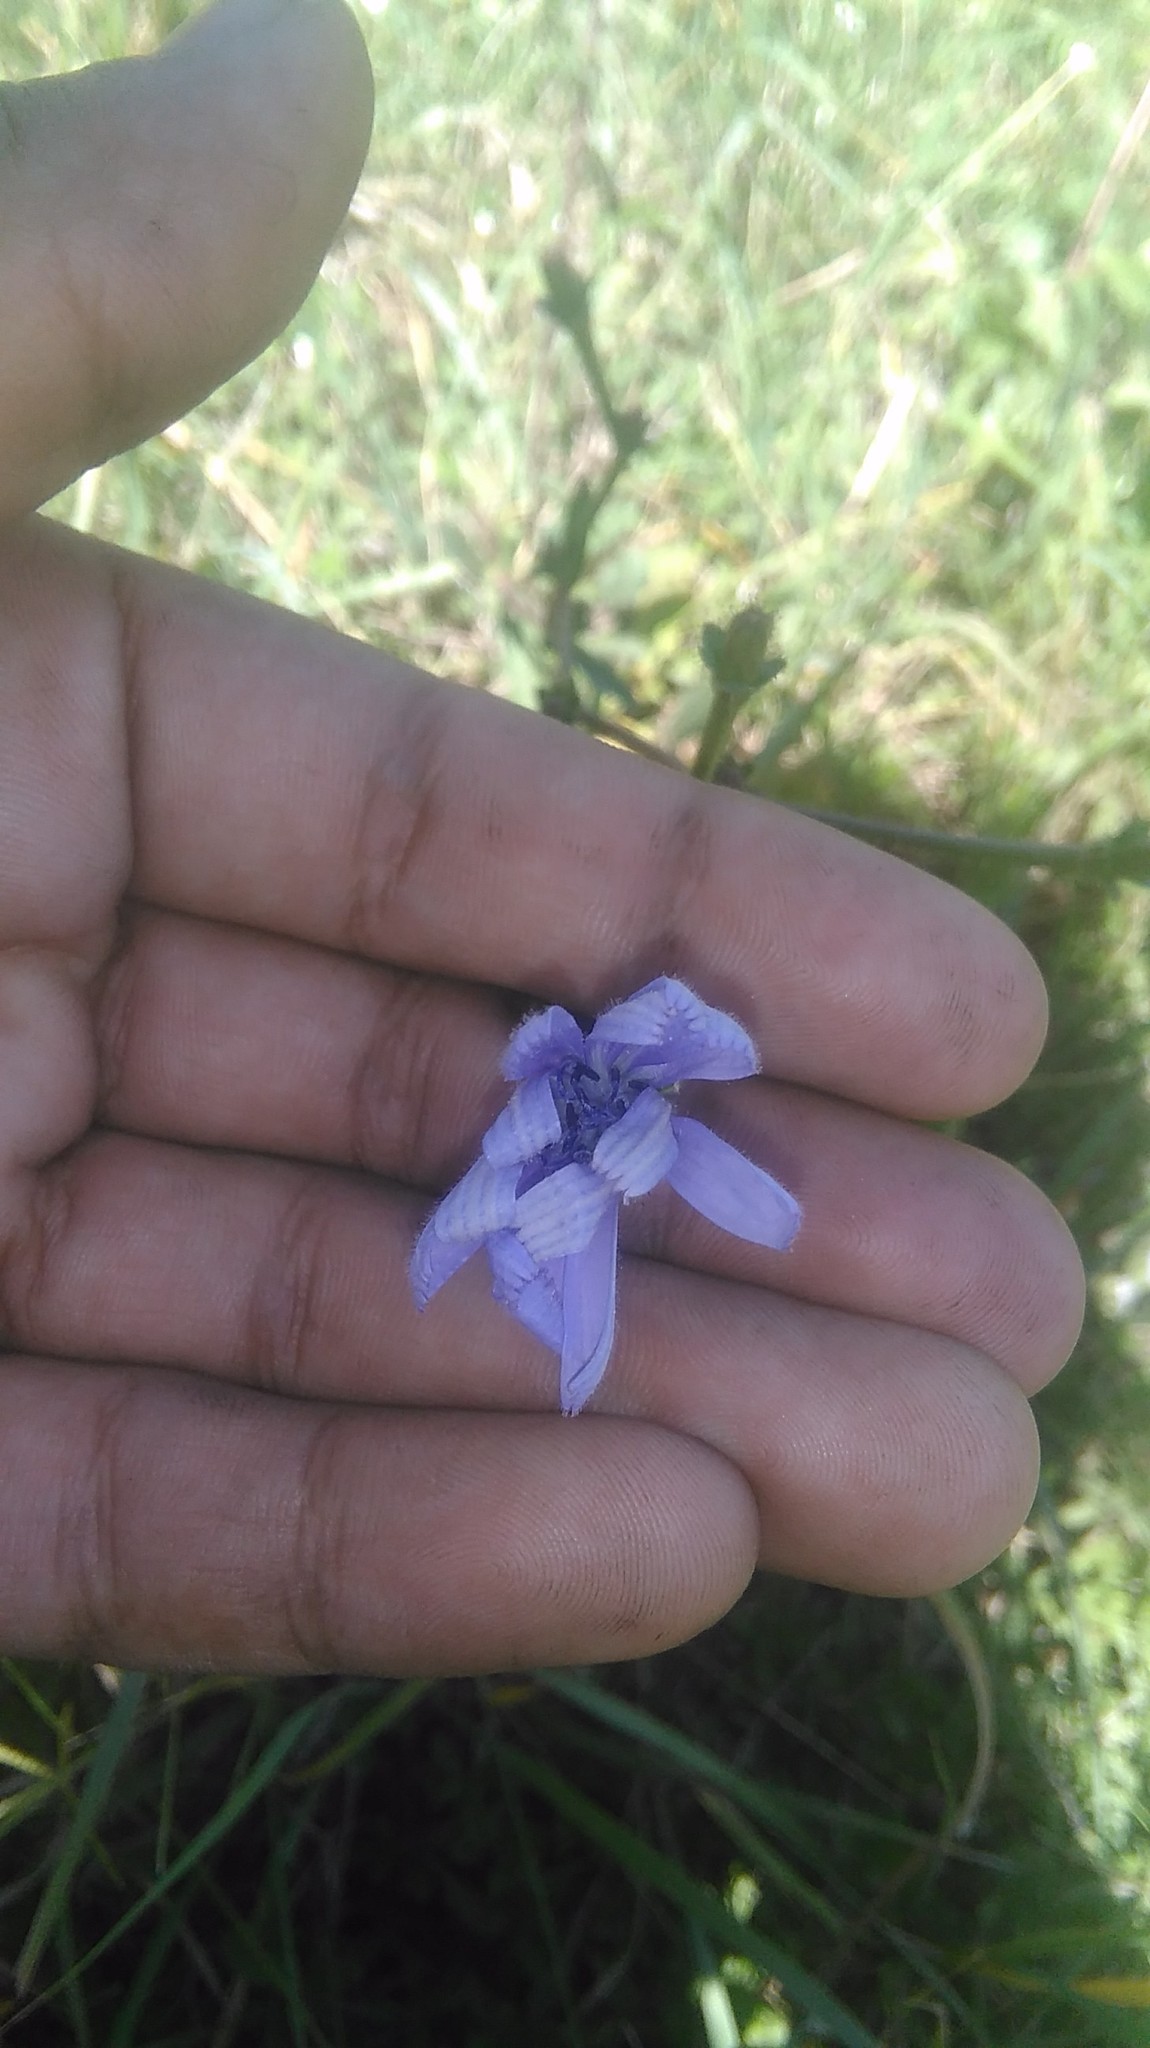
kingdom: Plantae
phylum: Tracheophyta
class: Magnoliopsida
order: Asterales
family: Asteraceae
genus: Cichorium
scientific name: Cichorium intybus
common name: Chicory
